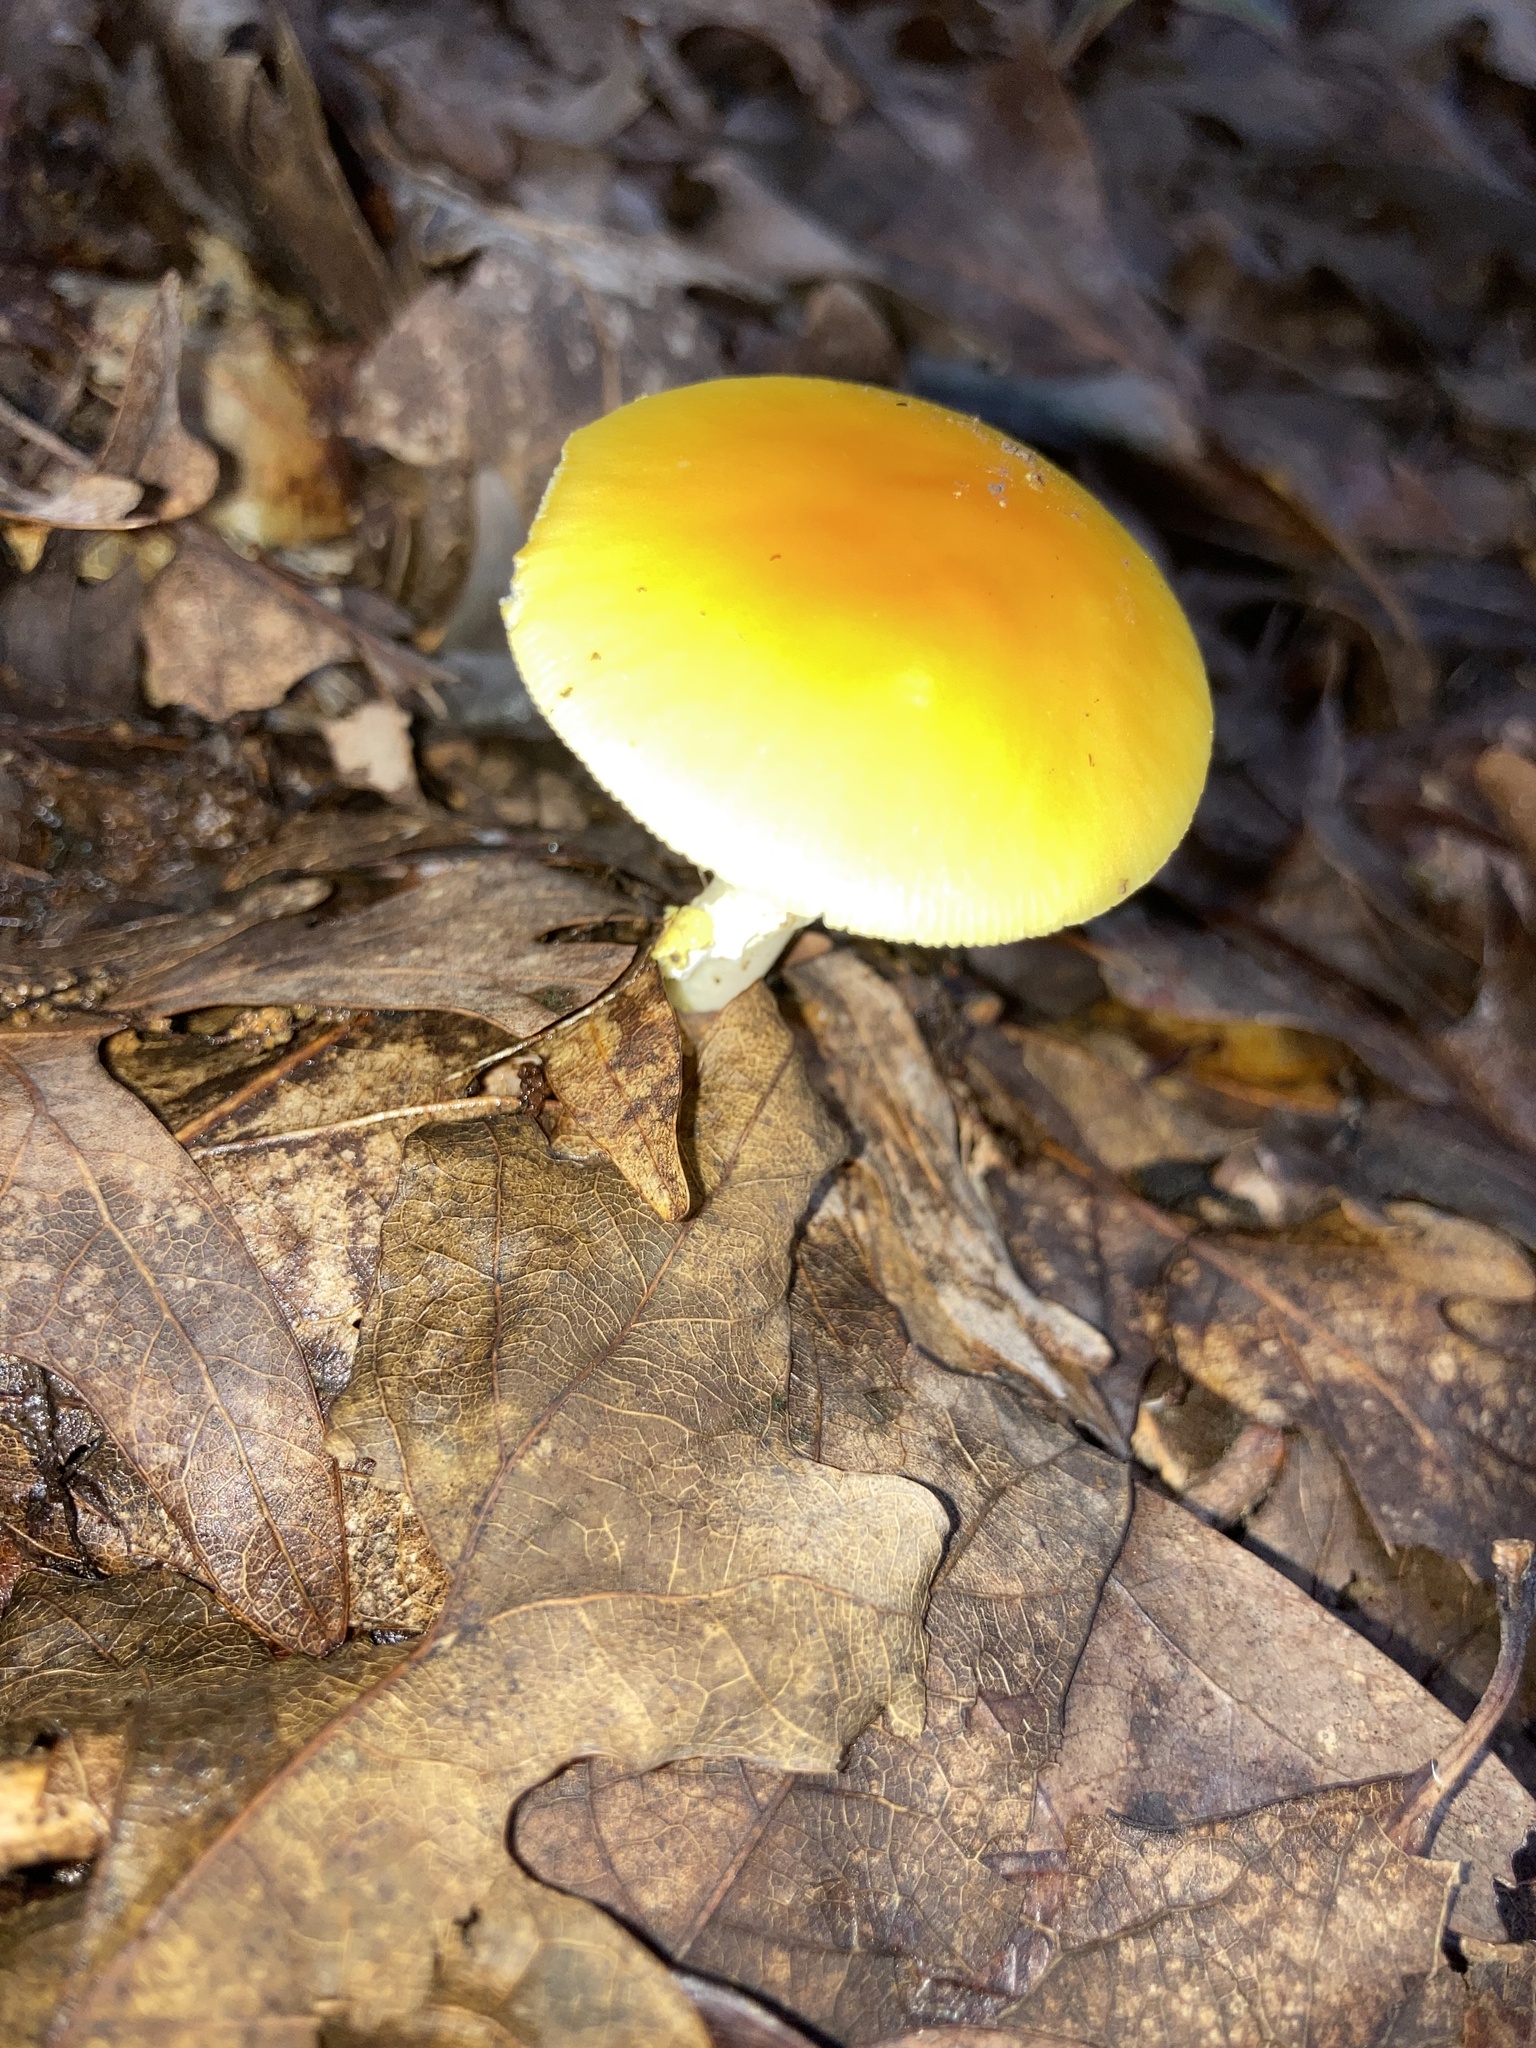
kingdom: Fungi
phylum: Basidiomycota
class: Agaricomycetes
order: Agaricales
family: Amanitaceae
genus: Amanita
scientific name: Amanita flavoconia
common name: Yellow patches
